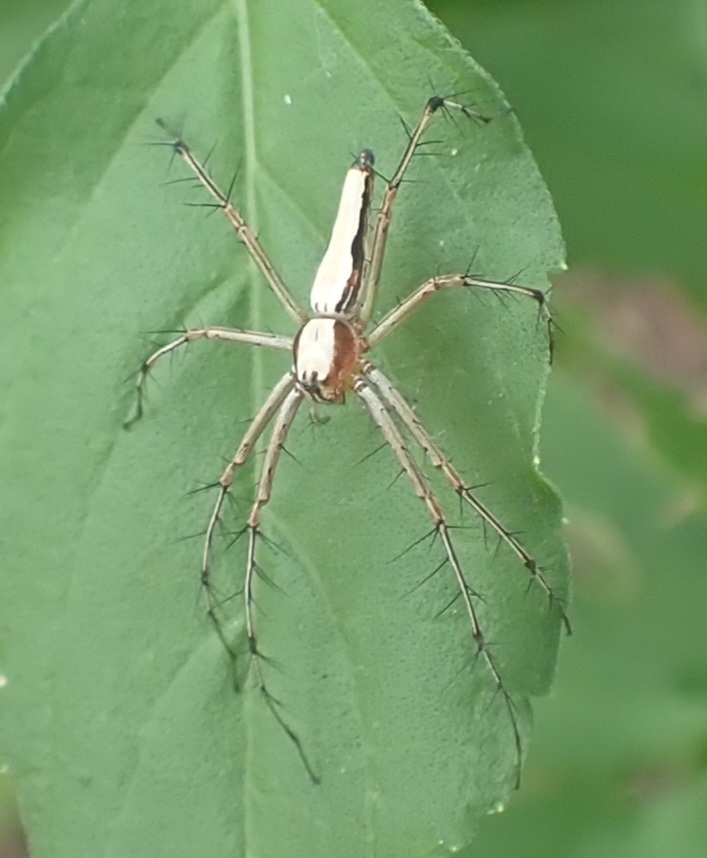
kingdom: Animalia
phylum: Arthropoda
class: Arachnida
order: Araneae
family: Oxyopidae
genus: Oxyopes
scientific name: Oxyopes shweta
